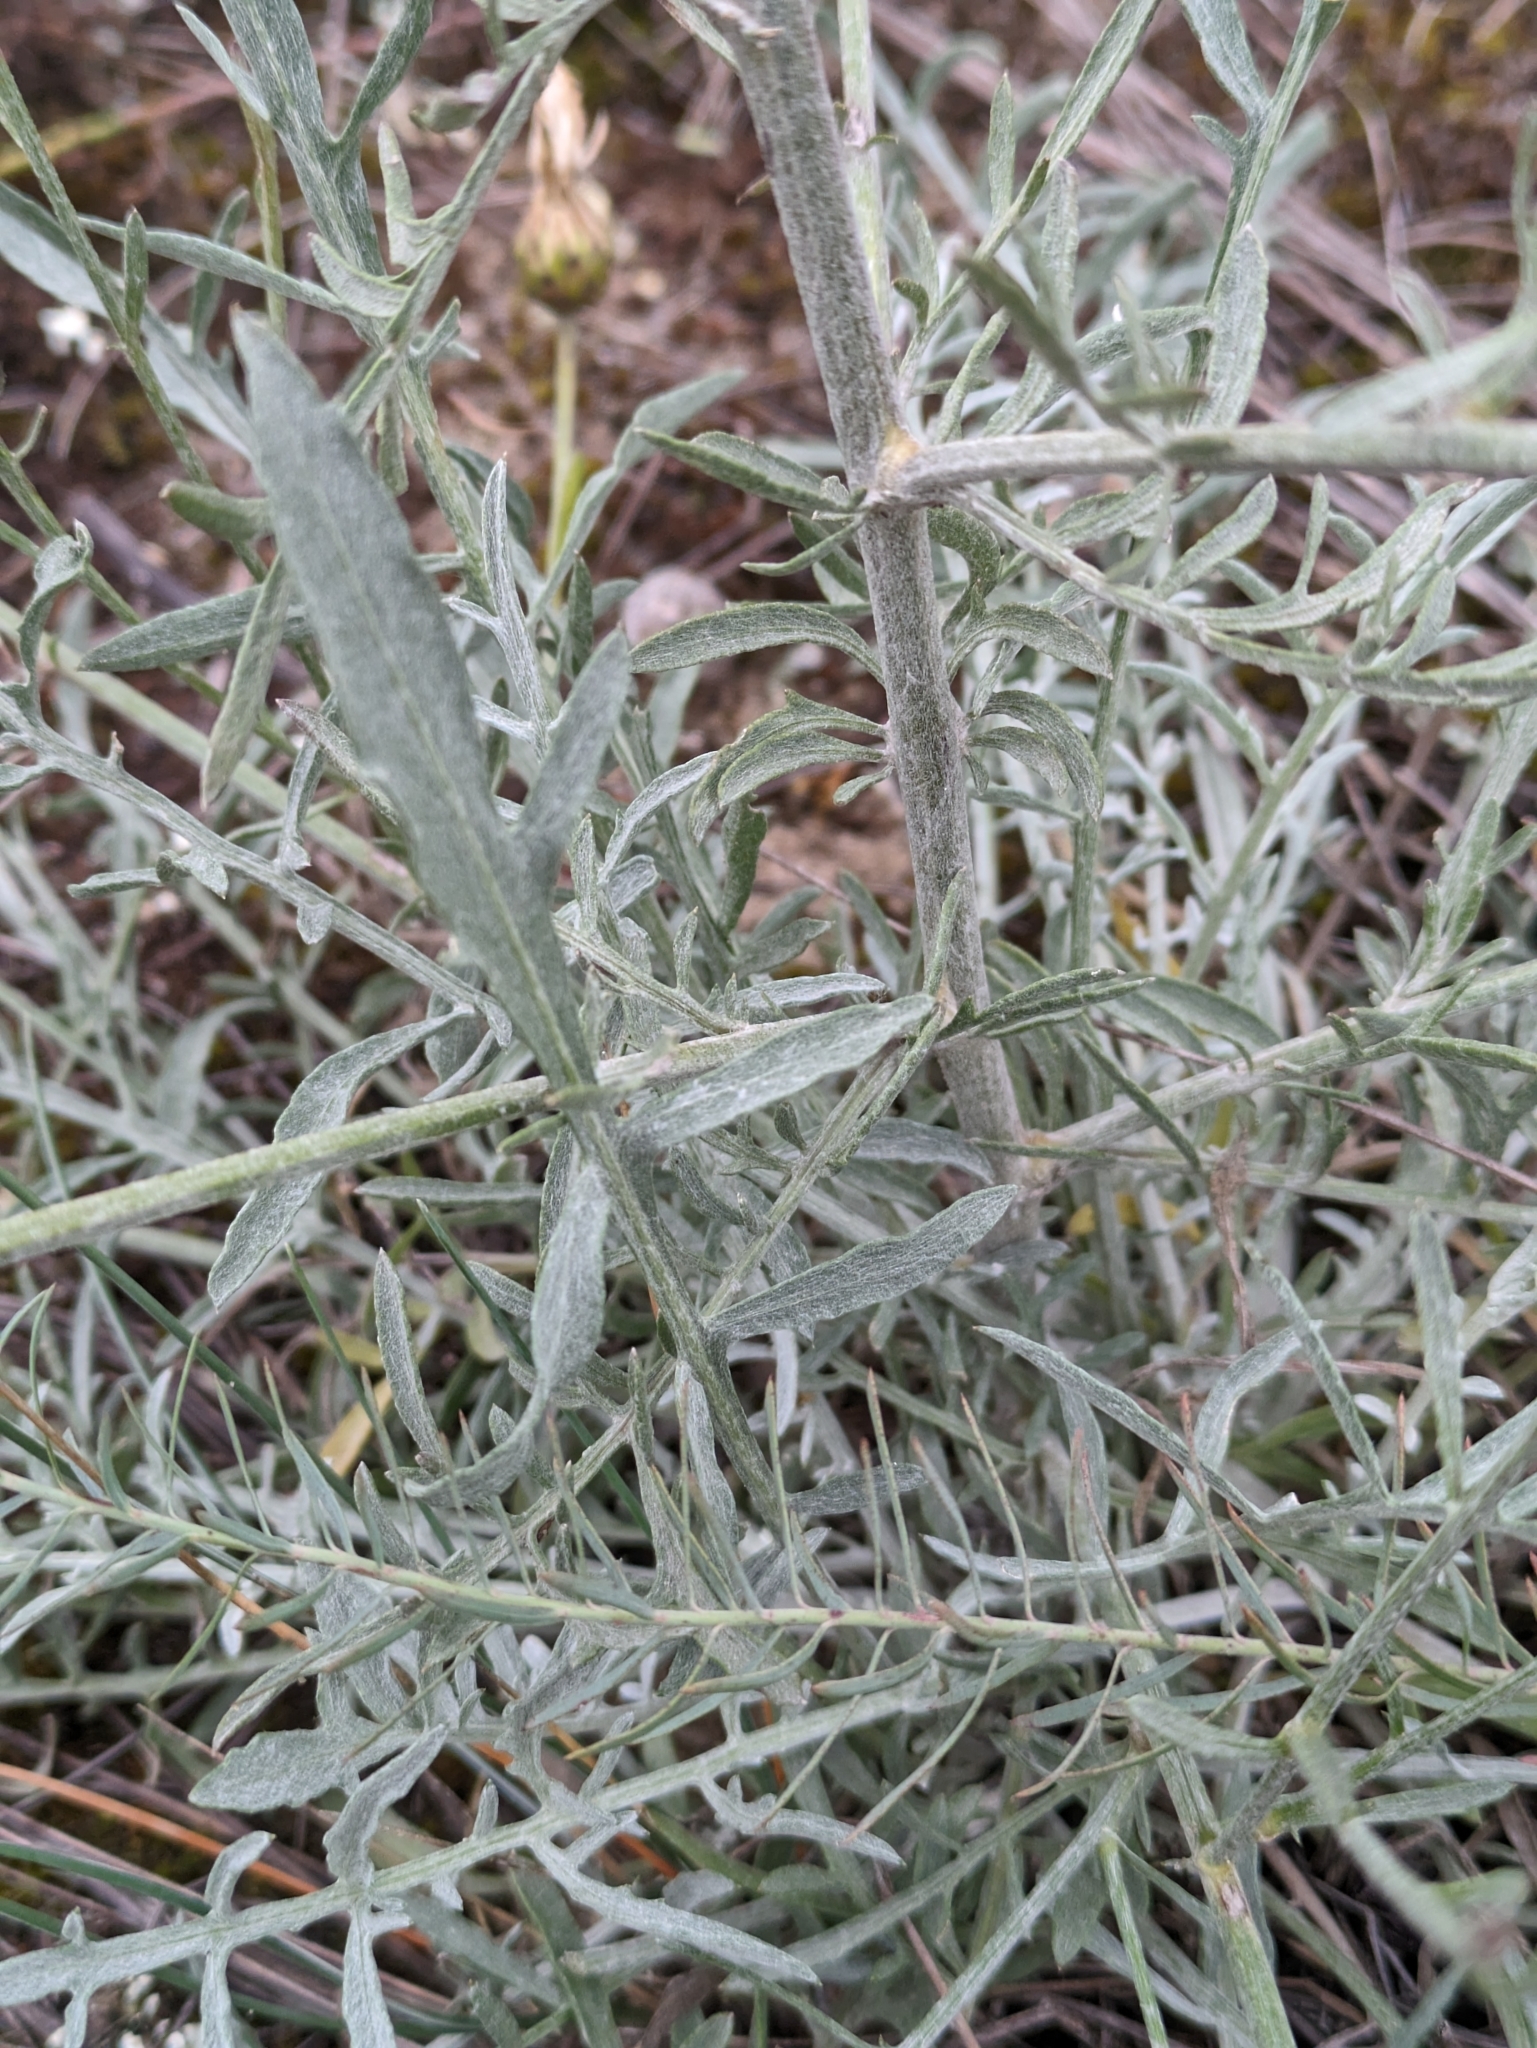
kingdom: Plantae
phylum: Tracheophyta
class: Magnoliopsida
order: Asterales
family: Asteraceae
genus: Centaurea
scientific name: Centaurea arenaria
